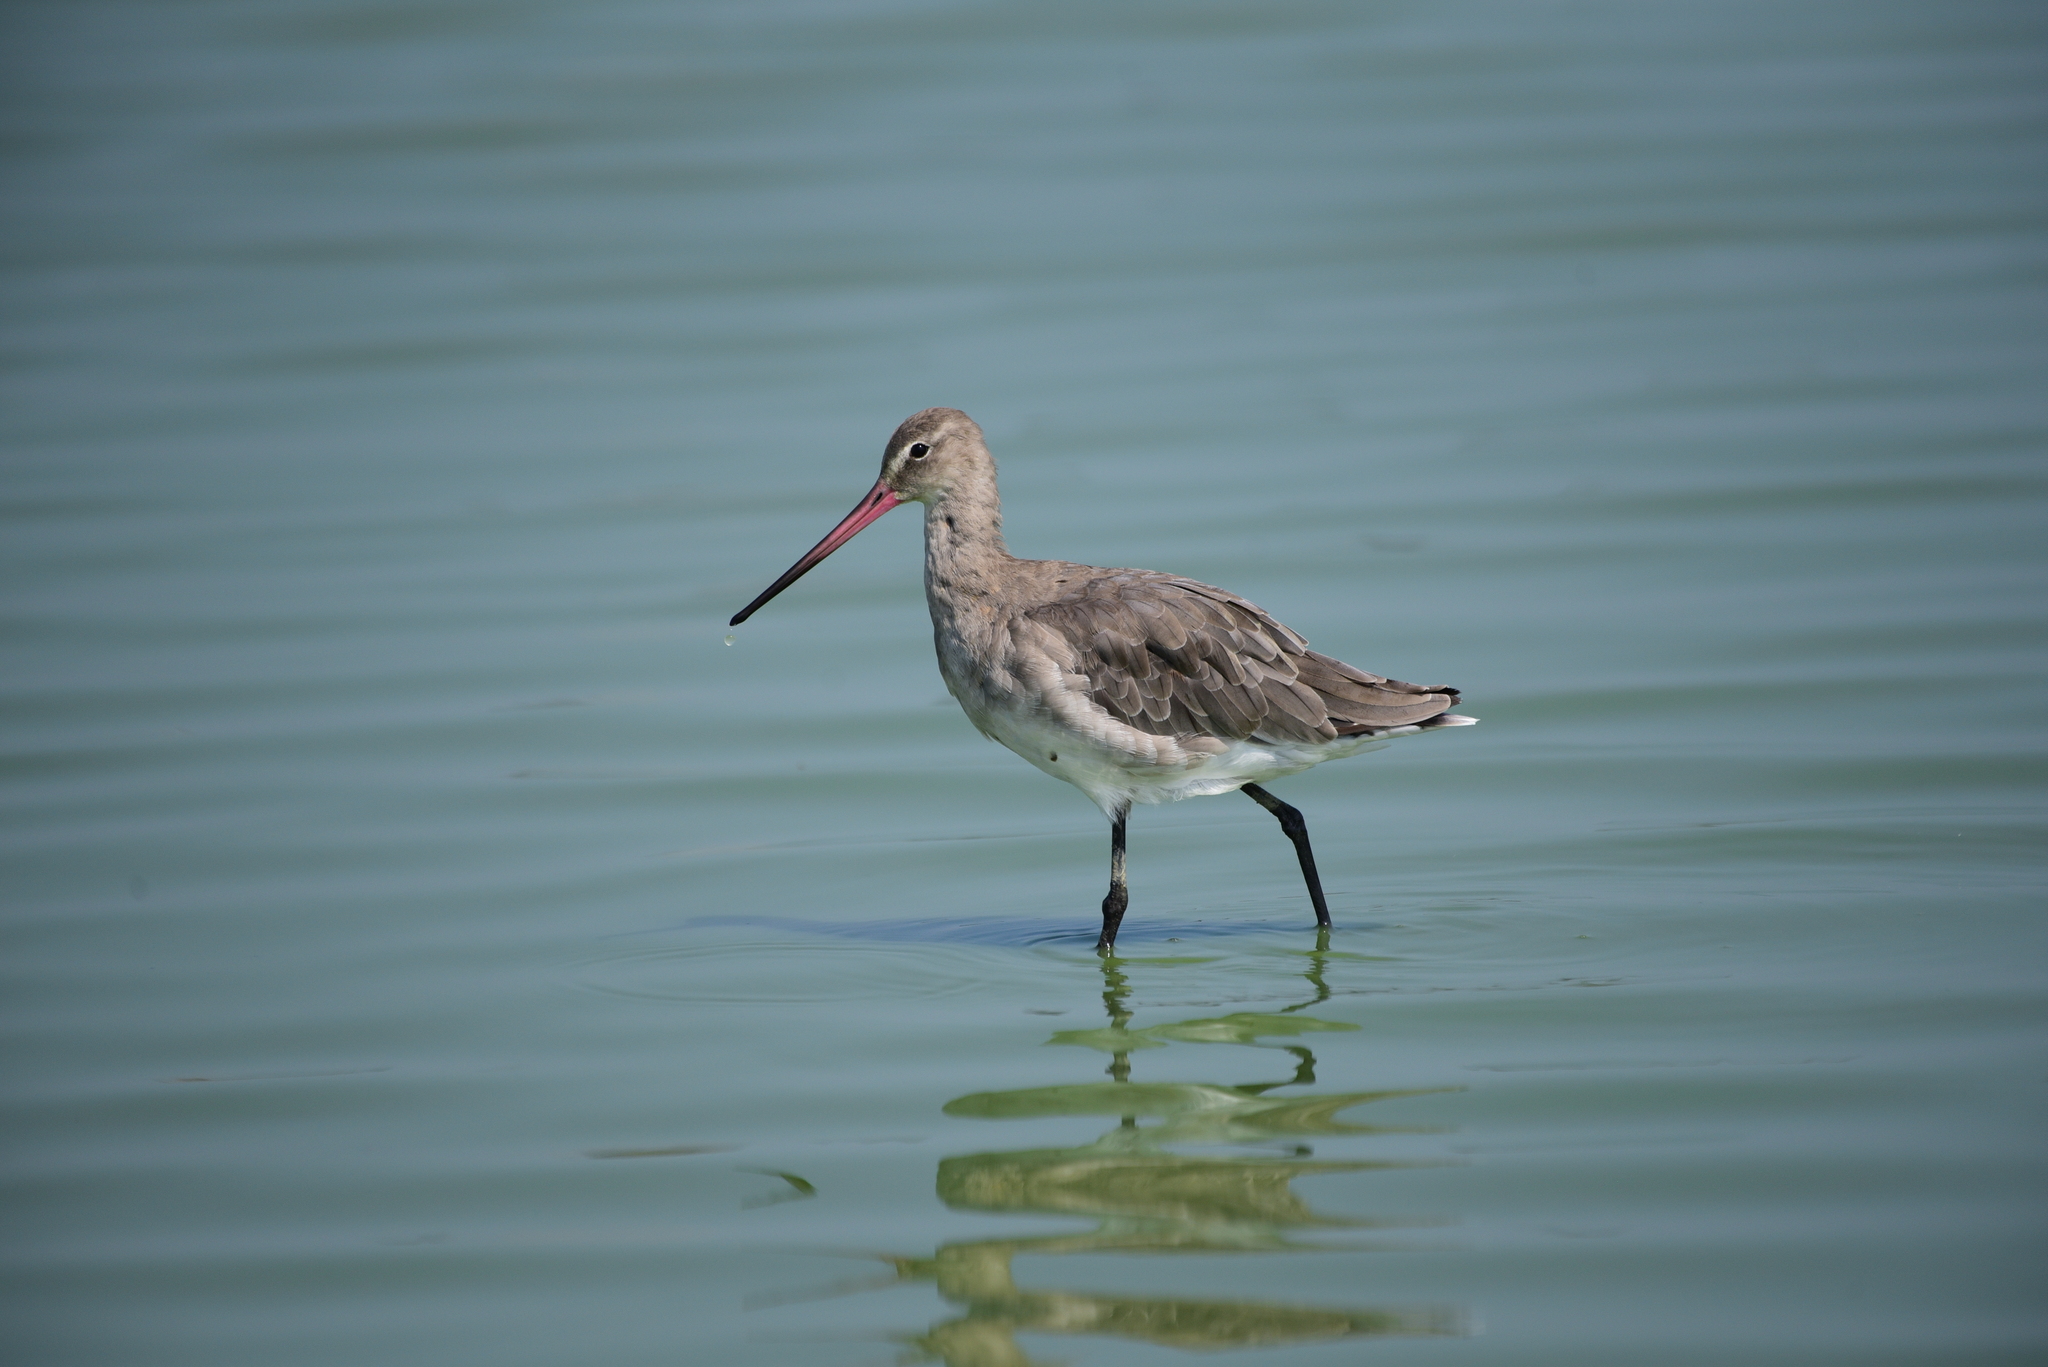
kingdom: Animalia
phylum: Chordata
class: Aves
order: Charadriiformes
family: Scolopacidae
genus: Limosa
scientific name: Limosa limosa
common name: Black-tailed godwit
